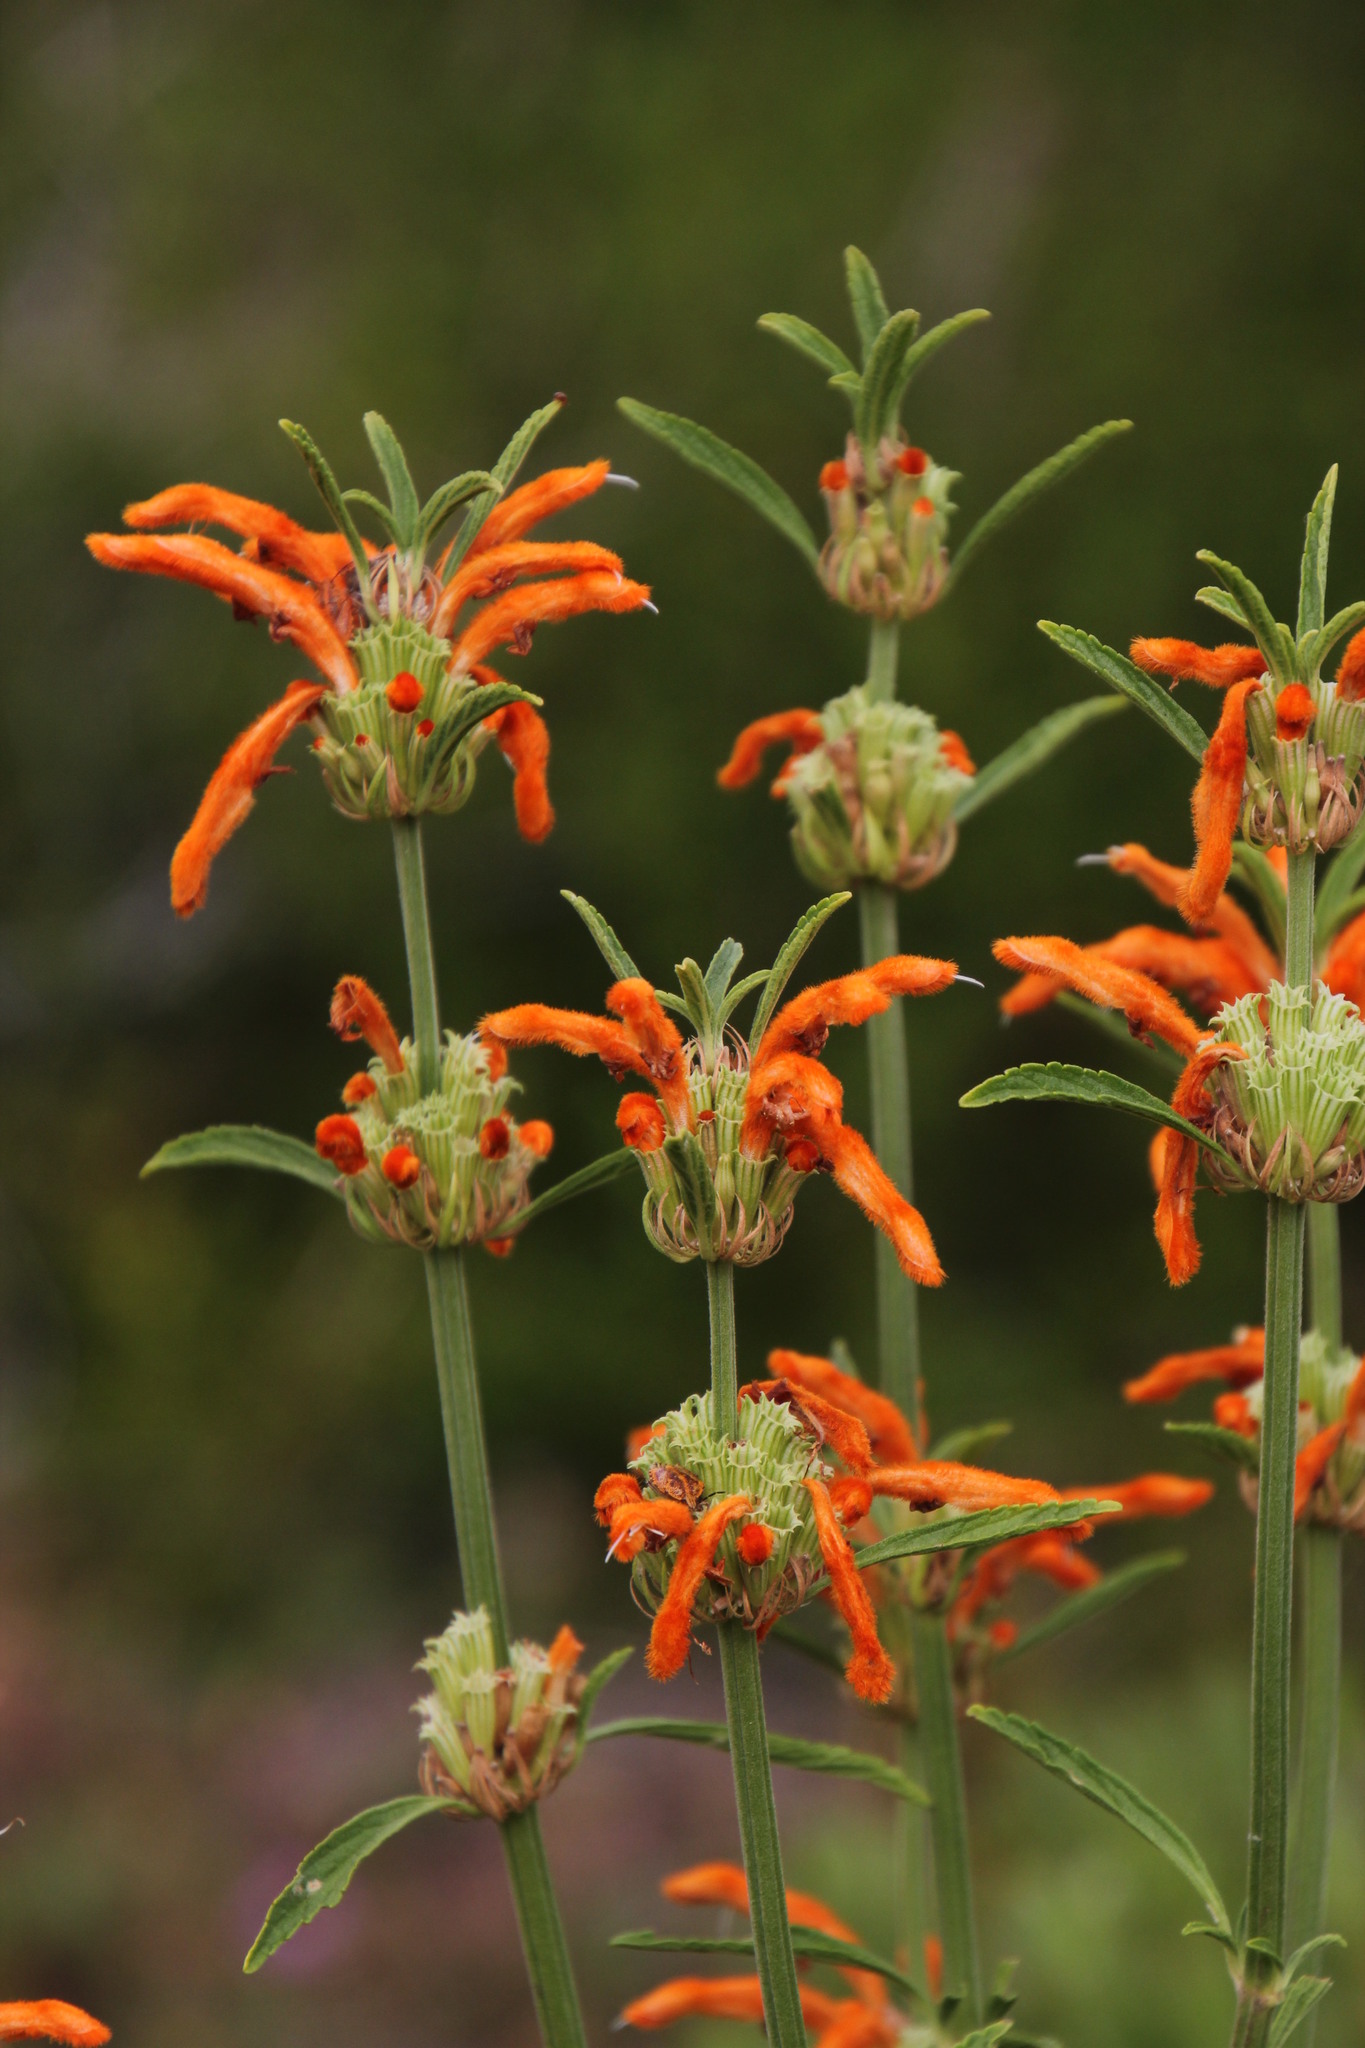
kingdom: Plantae
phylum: Tracheophyta
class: Magnoliopsida
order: Lamiales
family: Lamiaceae
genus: Leonotis
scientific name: Leonotis leonurus
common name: Lion's ear
